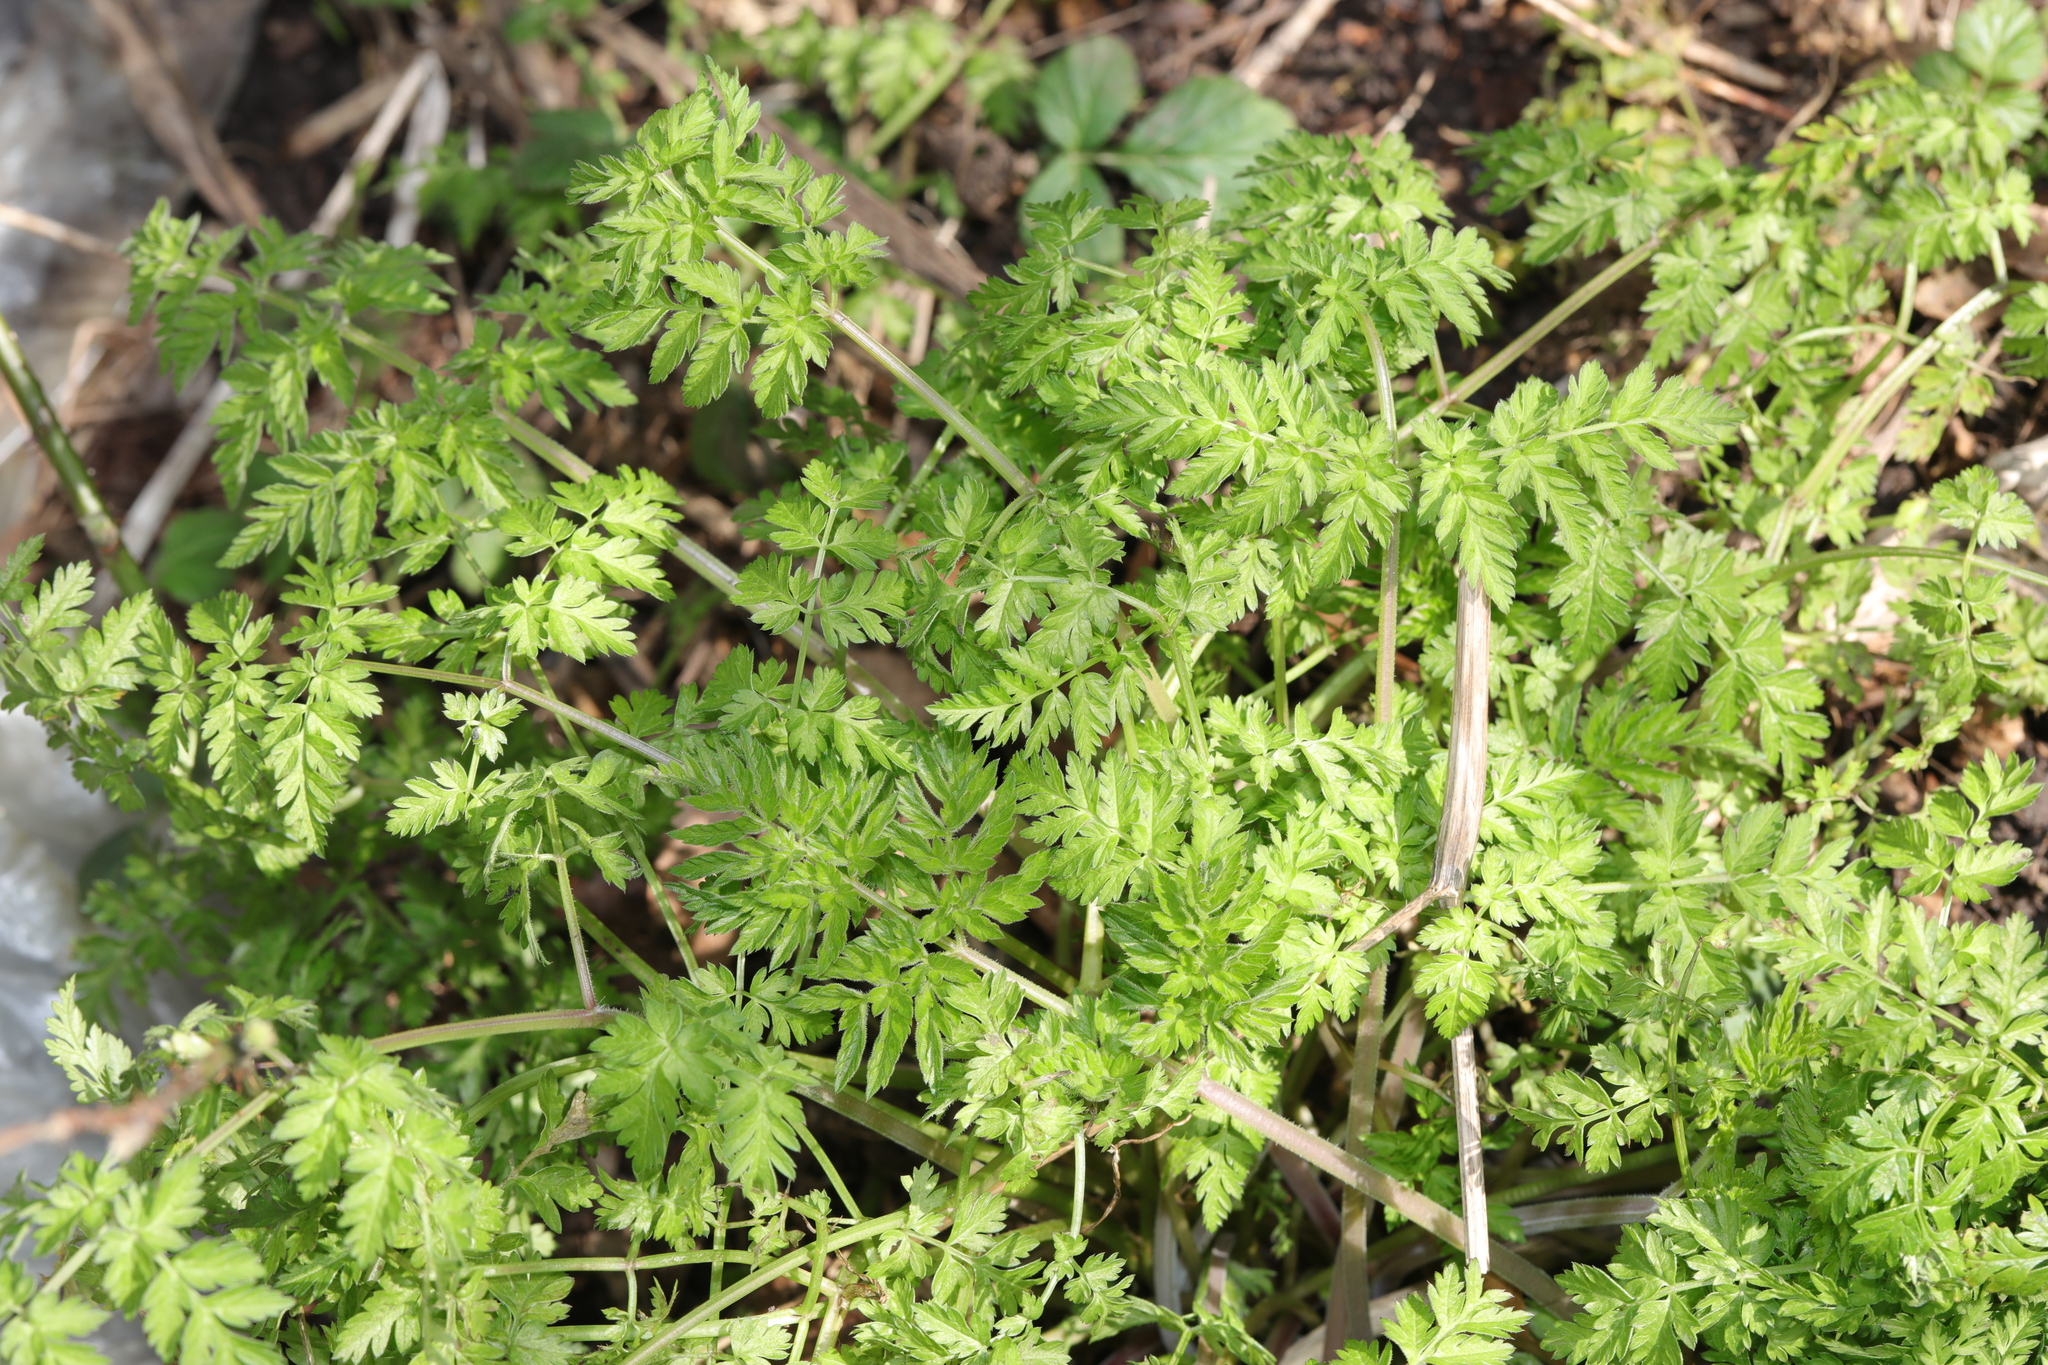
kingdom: Plantae
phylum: Tracheophyta
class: Magnoliopsida
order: Apiales
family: Apiaceae
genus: Anthriscus
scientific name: Anthriscus sylvestris
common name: Cow parsley
